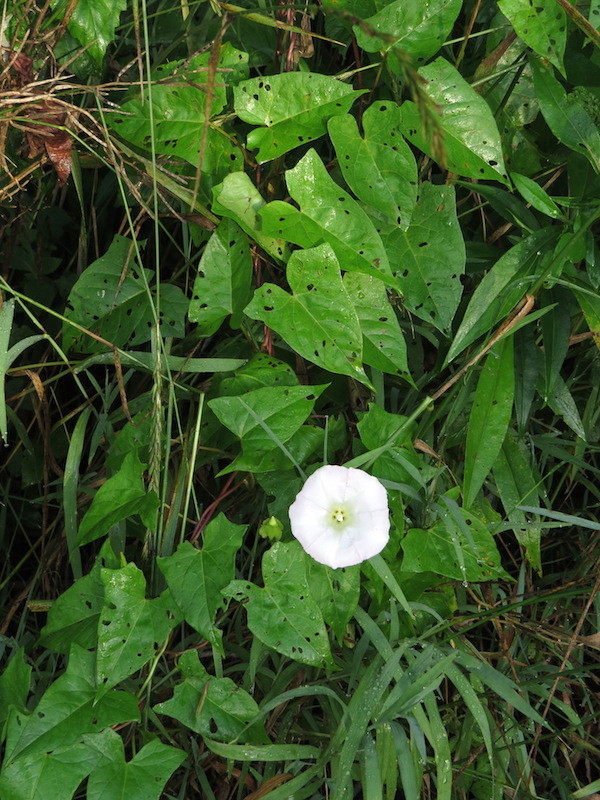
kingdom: Plantae
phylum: Tracheophyta
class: Magnoliopsida
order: Solanales
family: Convolvulaceae
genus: Calystegia
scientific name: Calystegia sepium
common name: Hedge bindweed
